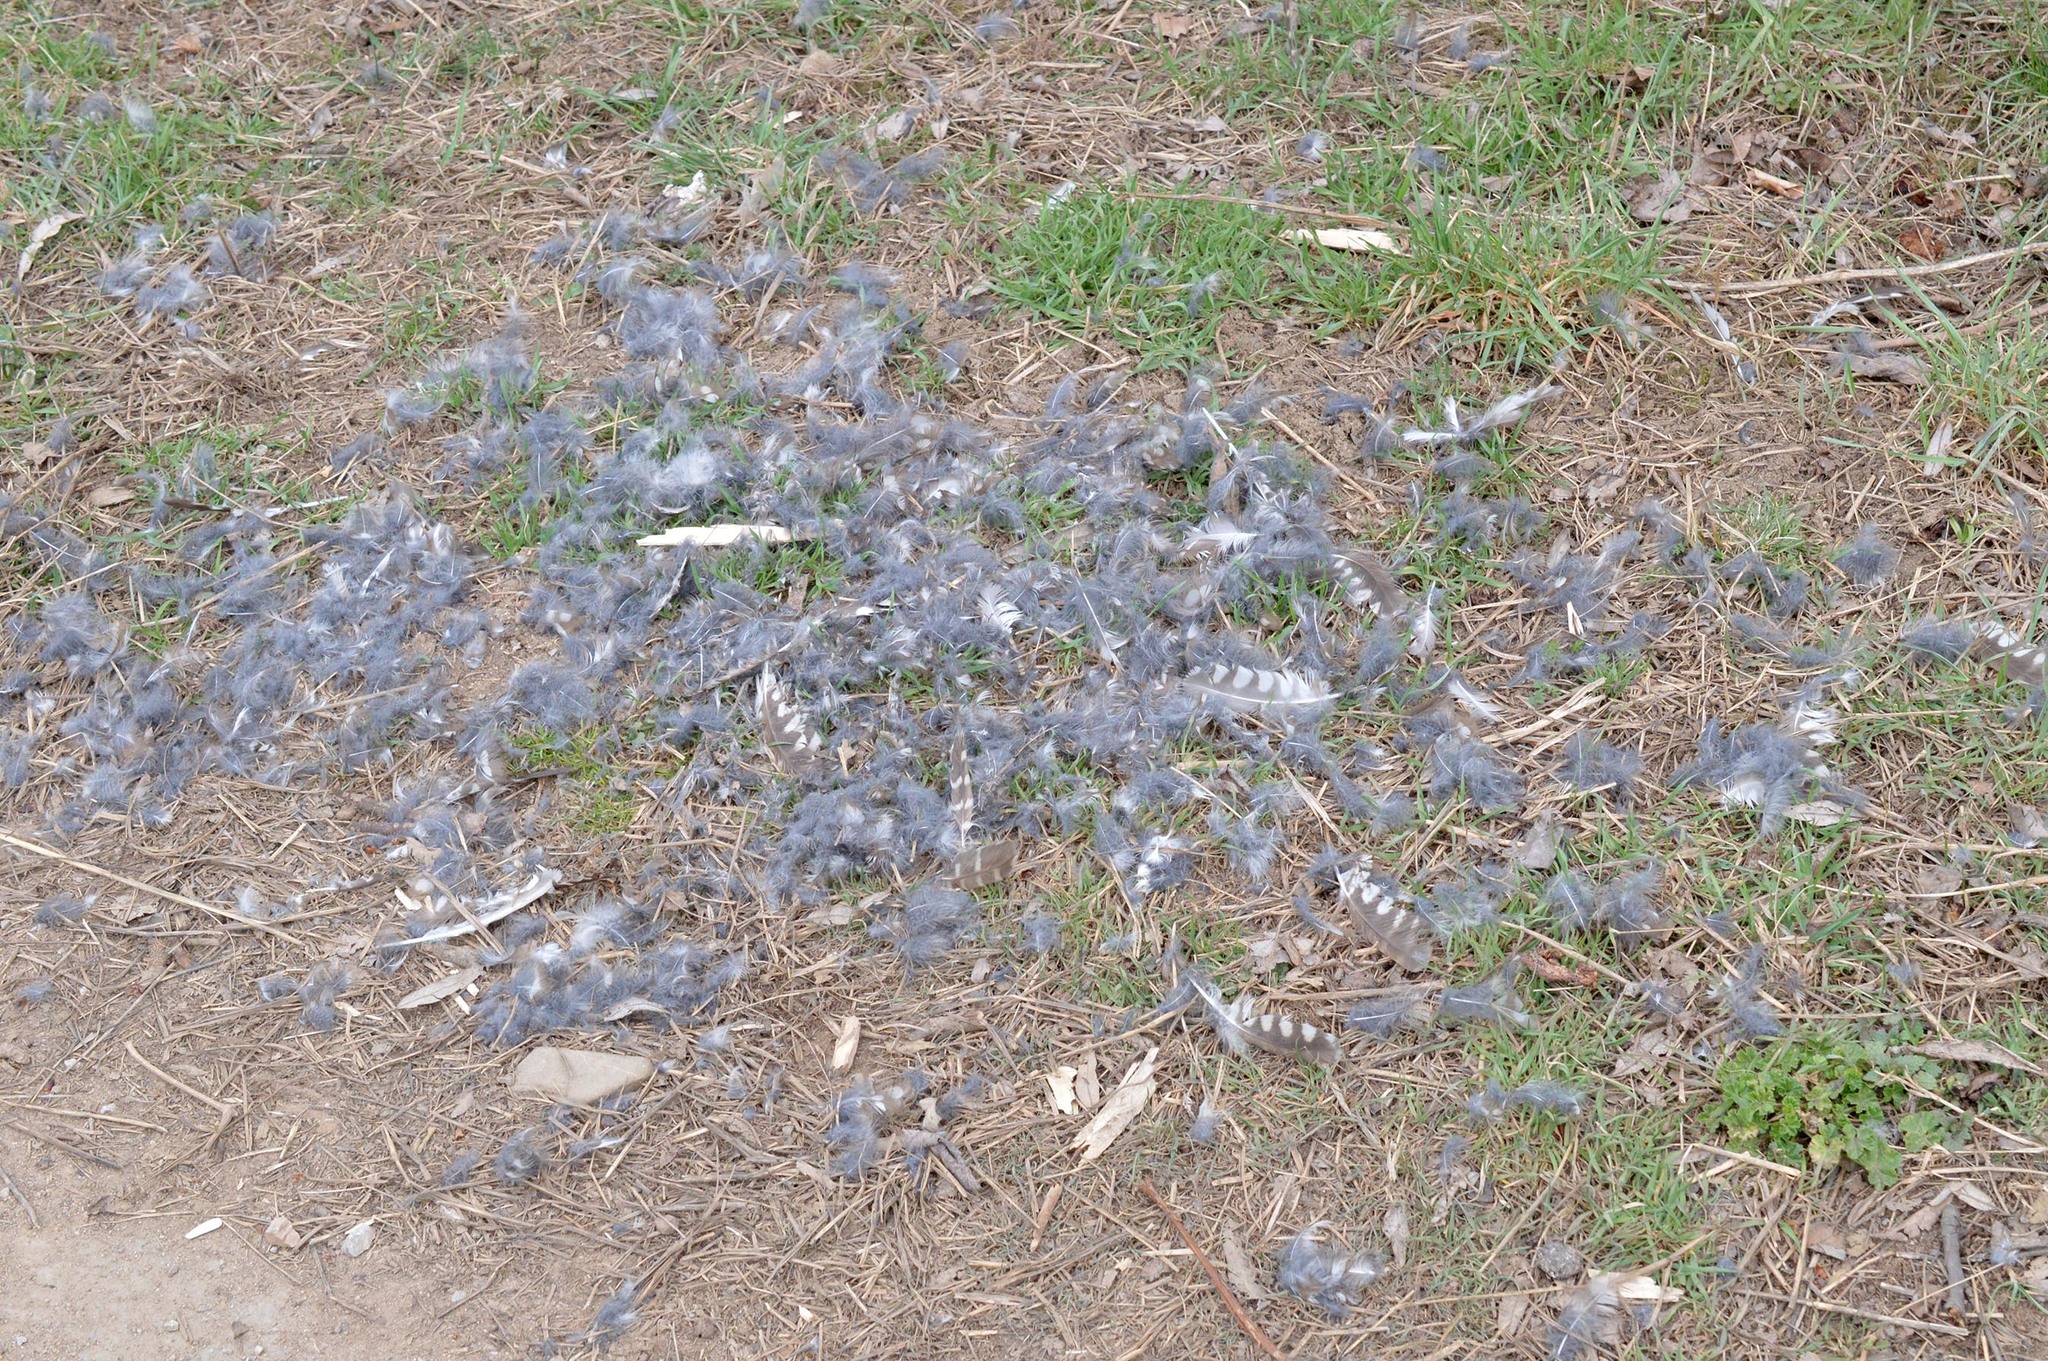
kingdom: Animalia
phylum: Chordata
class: Aves
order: Strigiformes
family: Strigidae
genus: Athene
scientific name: Athene noctua
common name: Little owl
